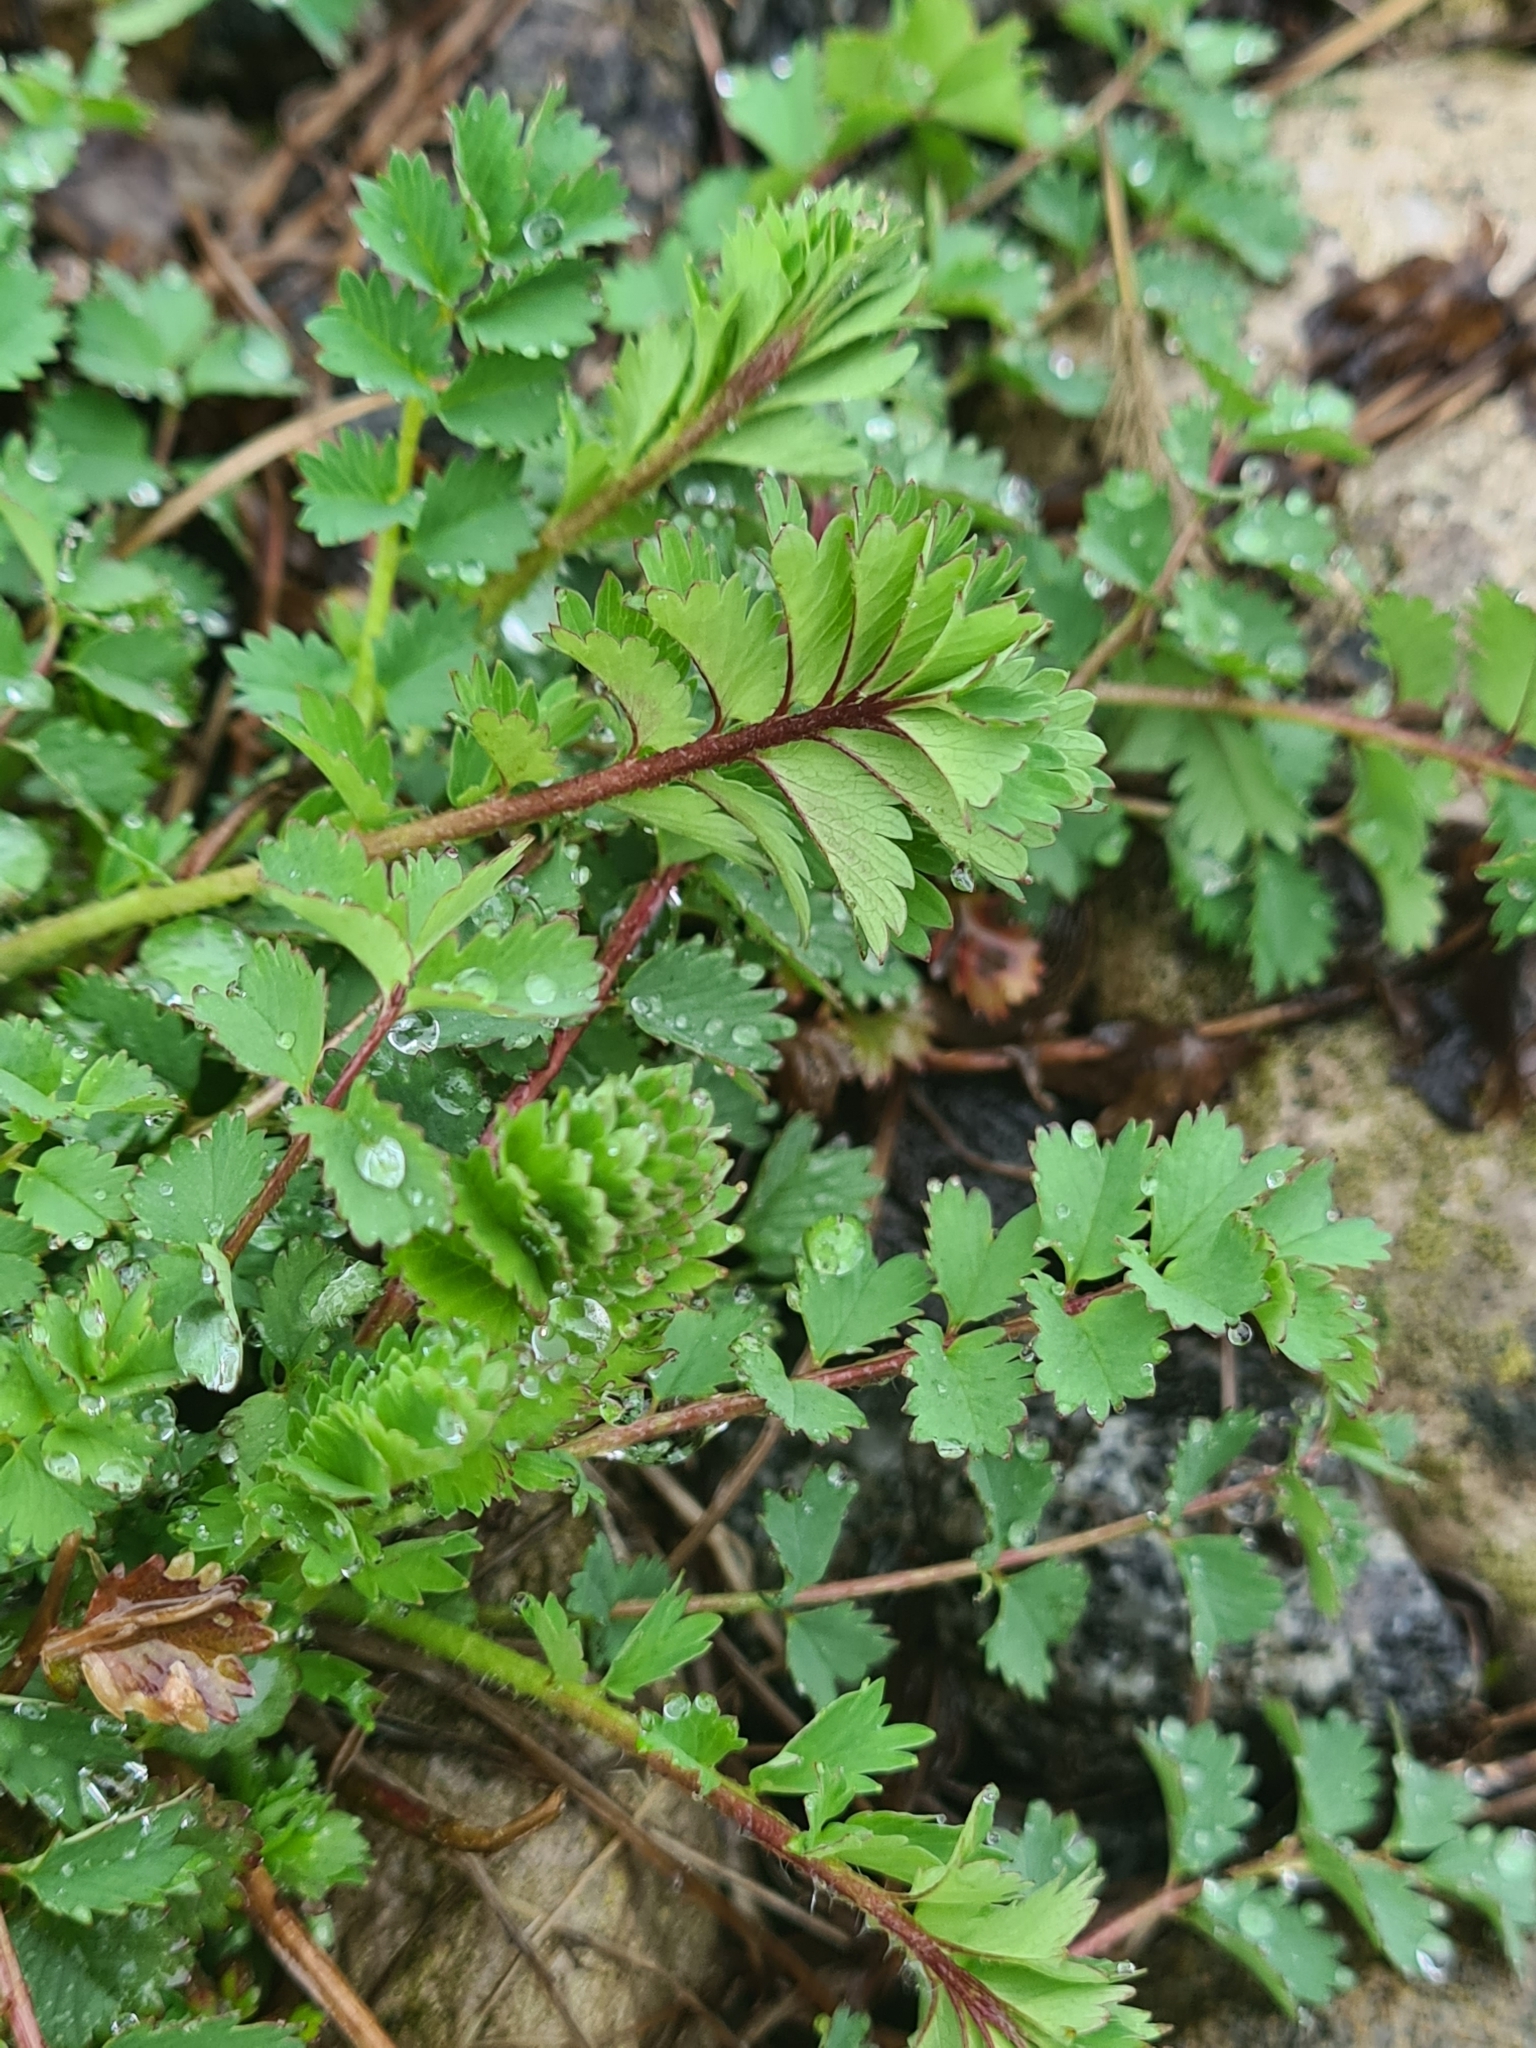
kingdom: Plantae
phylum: Tracheophyta
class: Magnoliopsida
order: Rosales
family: Rosaceae
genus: Poterium
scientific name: Poterium sanguisorba
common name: Salad burnet
